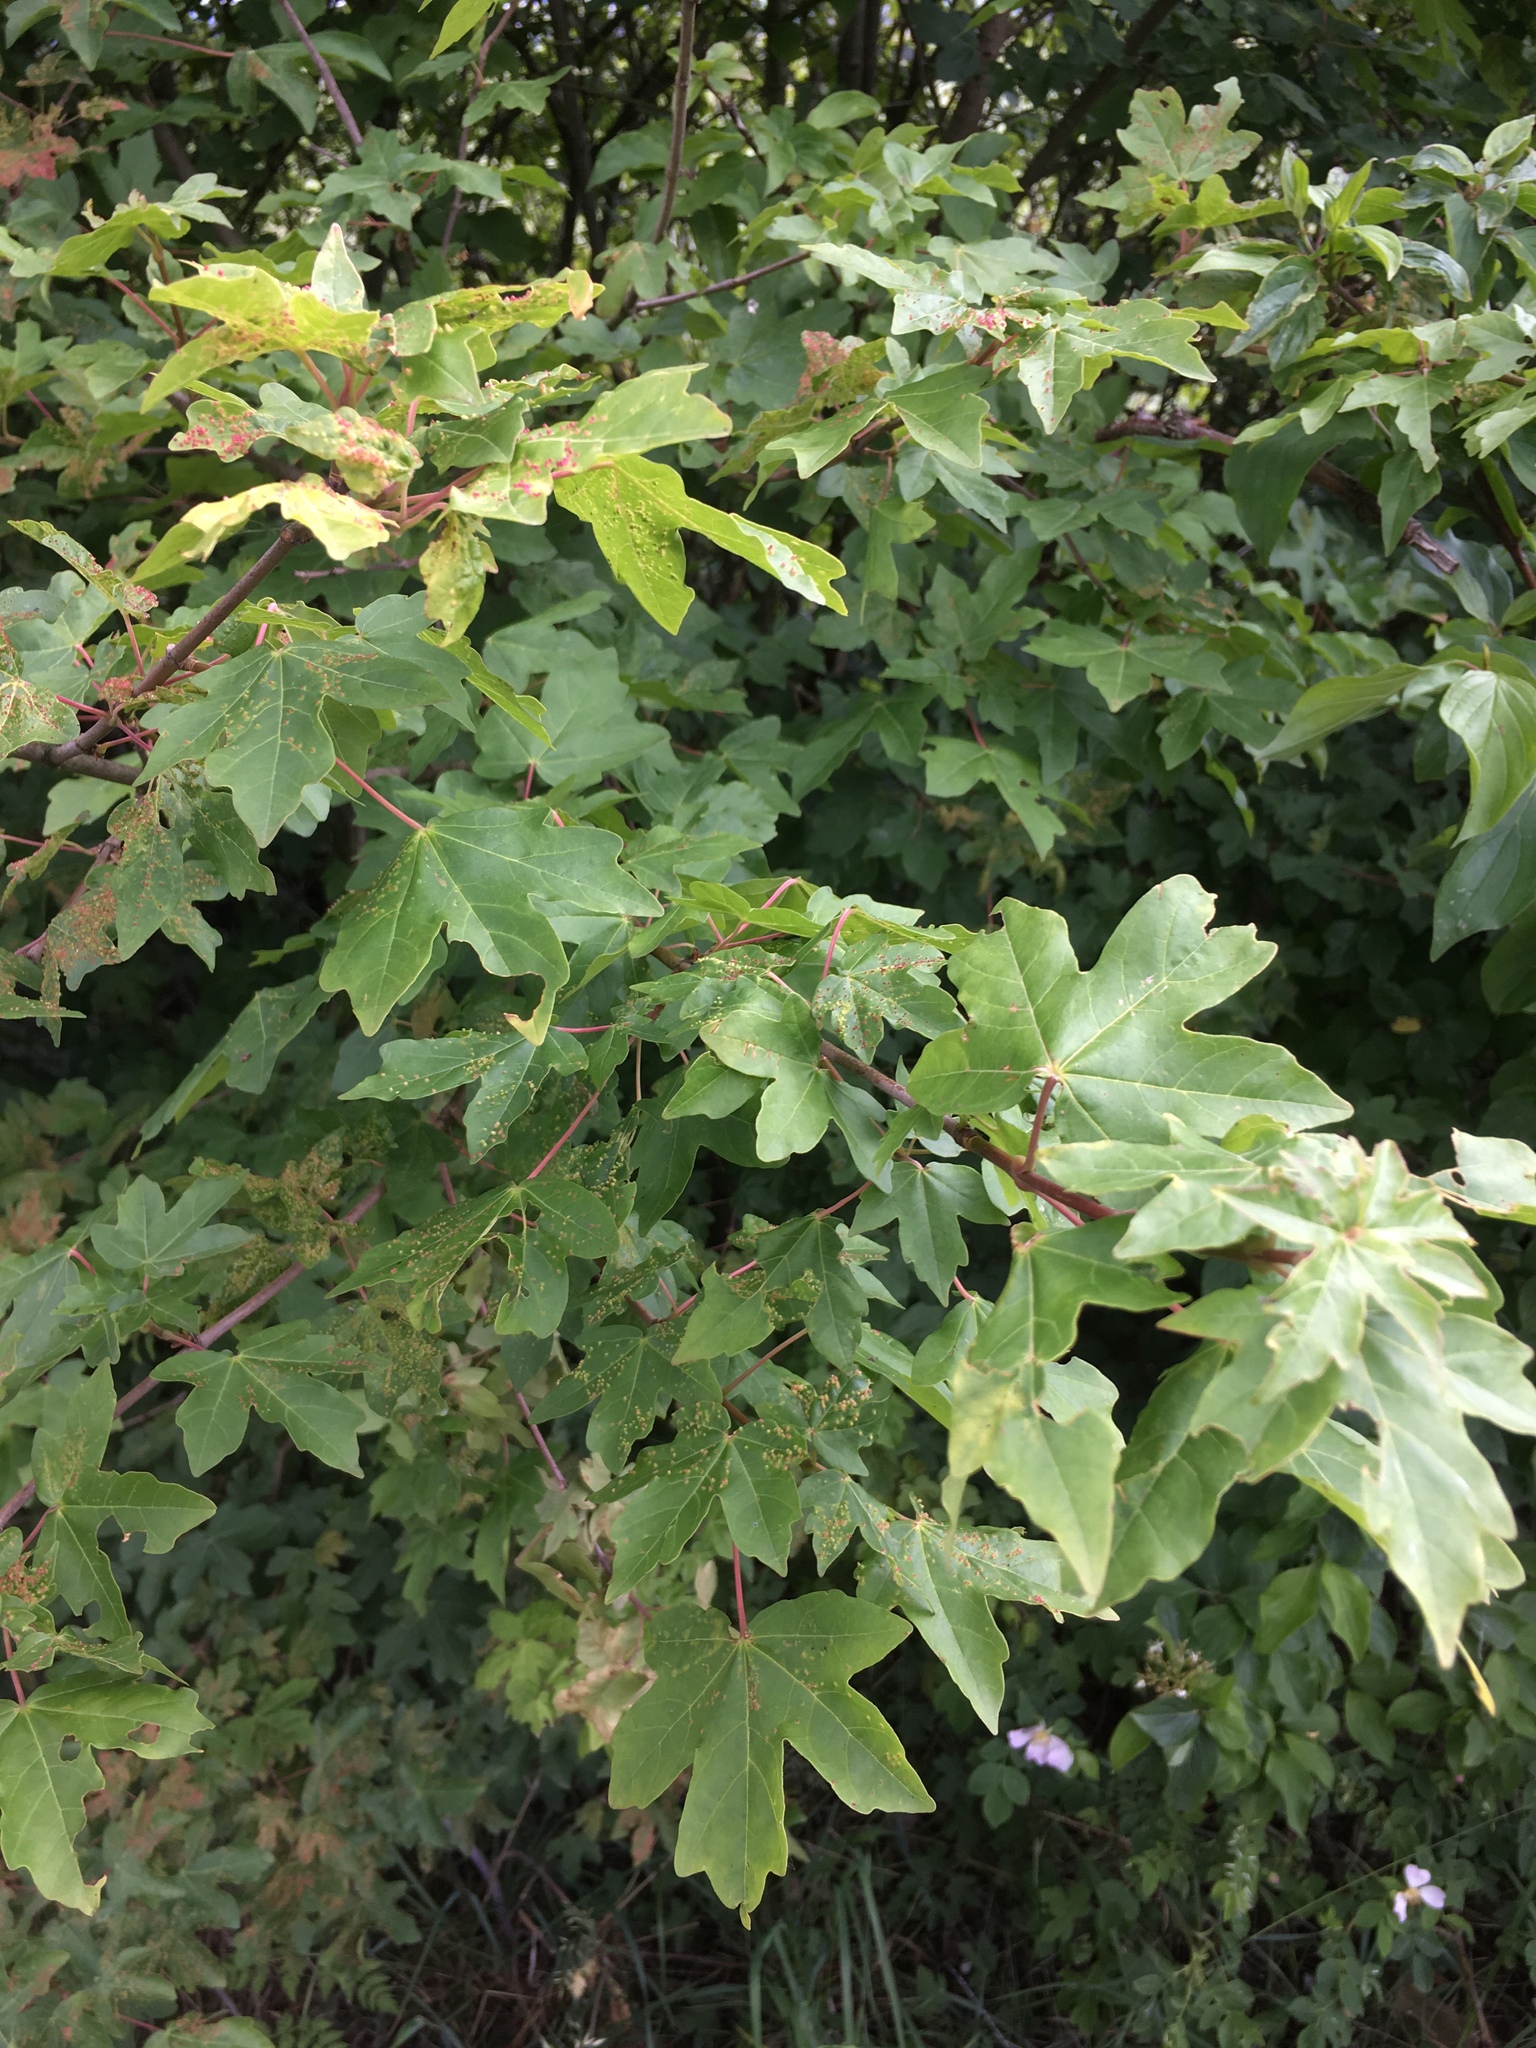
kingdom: Plantae
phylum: Tracheophyta
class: Magnoliopsida
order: Sapindales
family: Sapindaceae
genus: Acer
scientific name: Acer campestre
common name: Field maple
